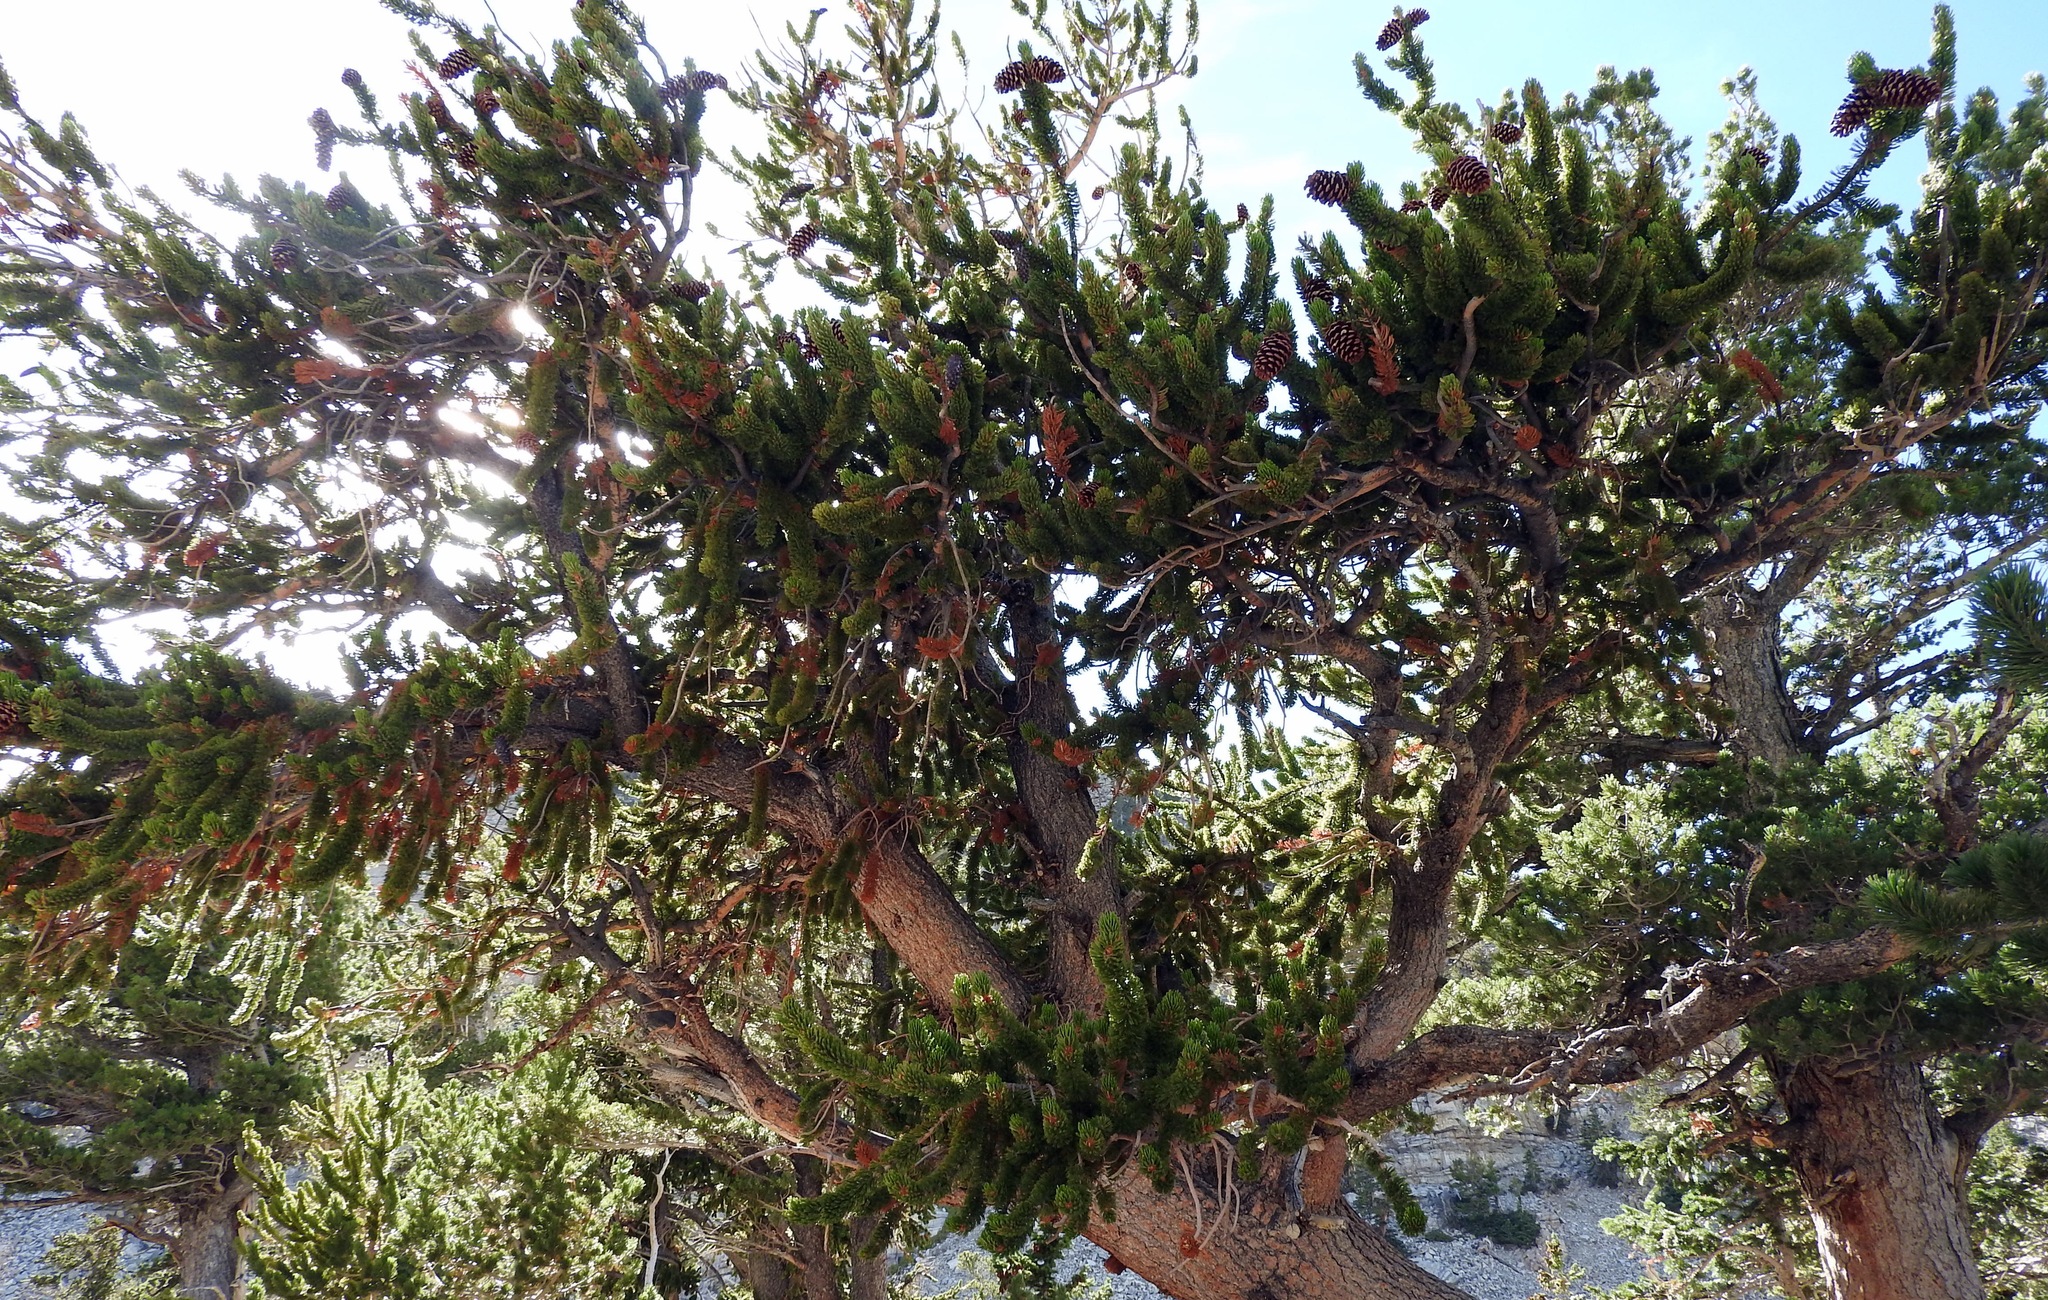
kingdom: Plantae
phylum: Tracheophyta
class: Pinopsida
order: Pinales
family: Pinaceae
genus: Pinus
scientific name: Pinus longaeva
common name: Intermountain bristlecone pine
